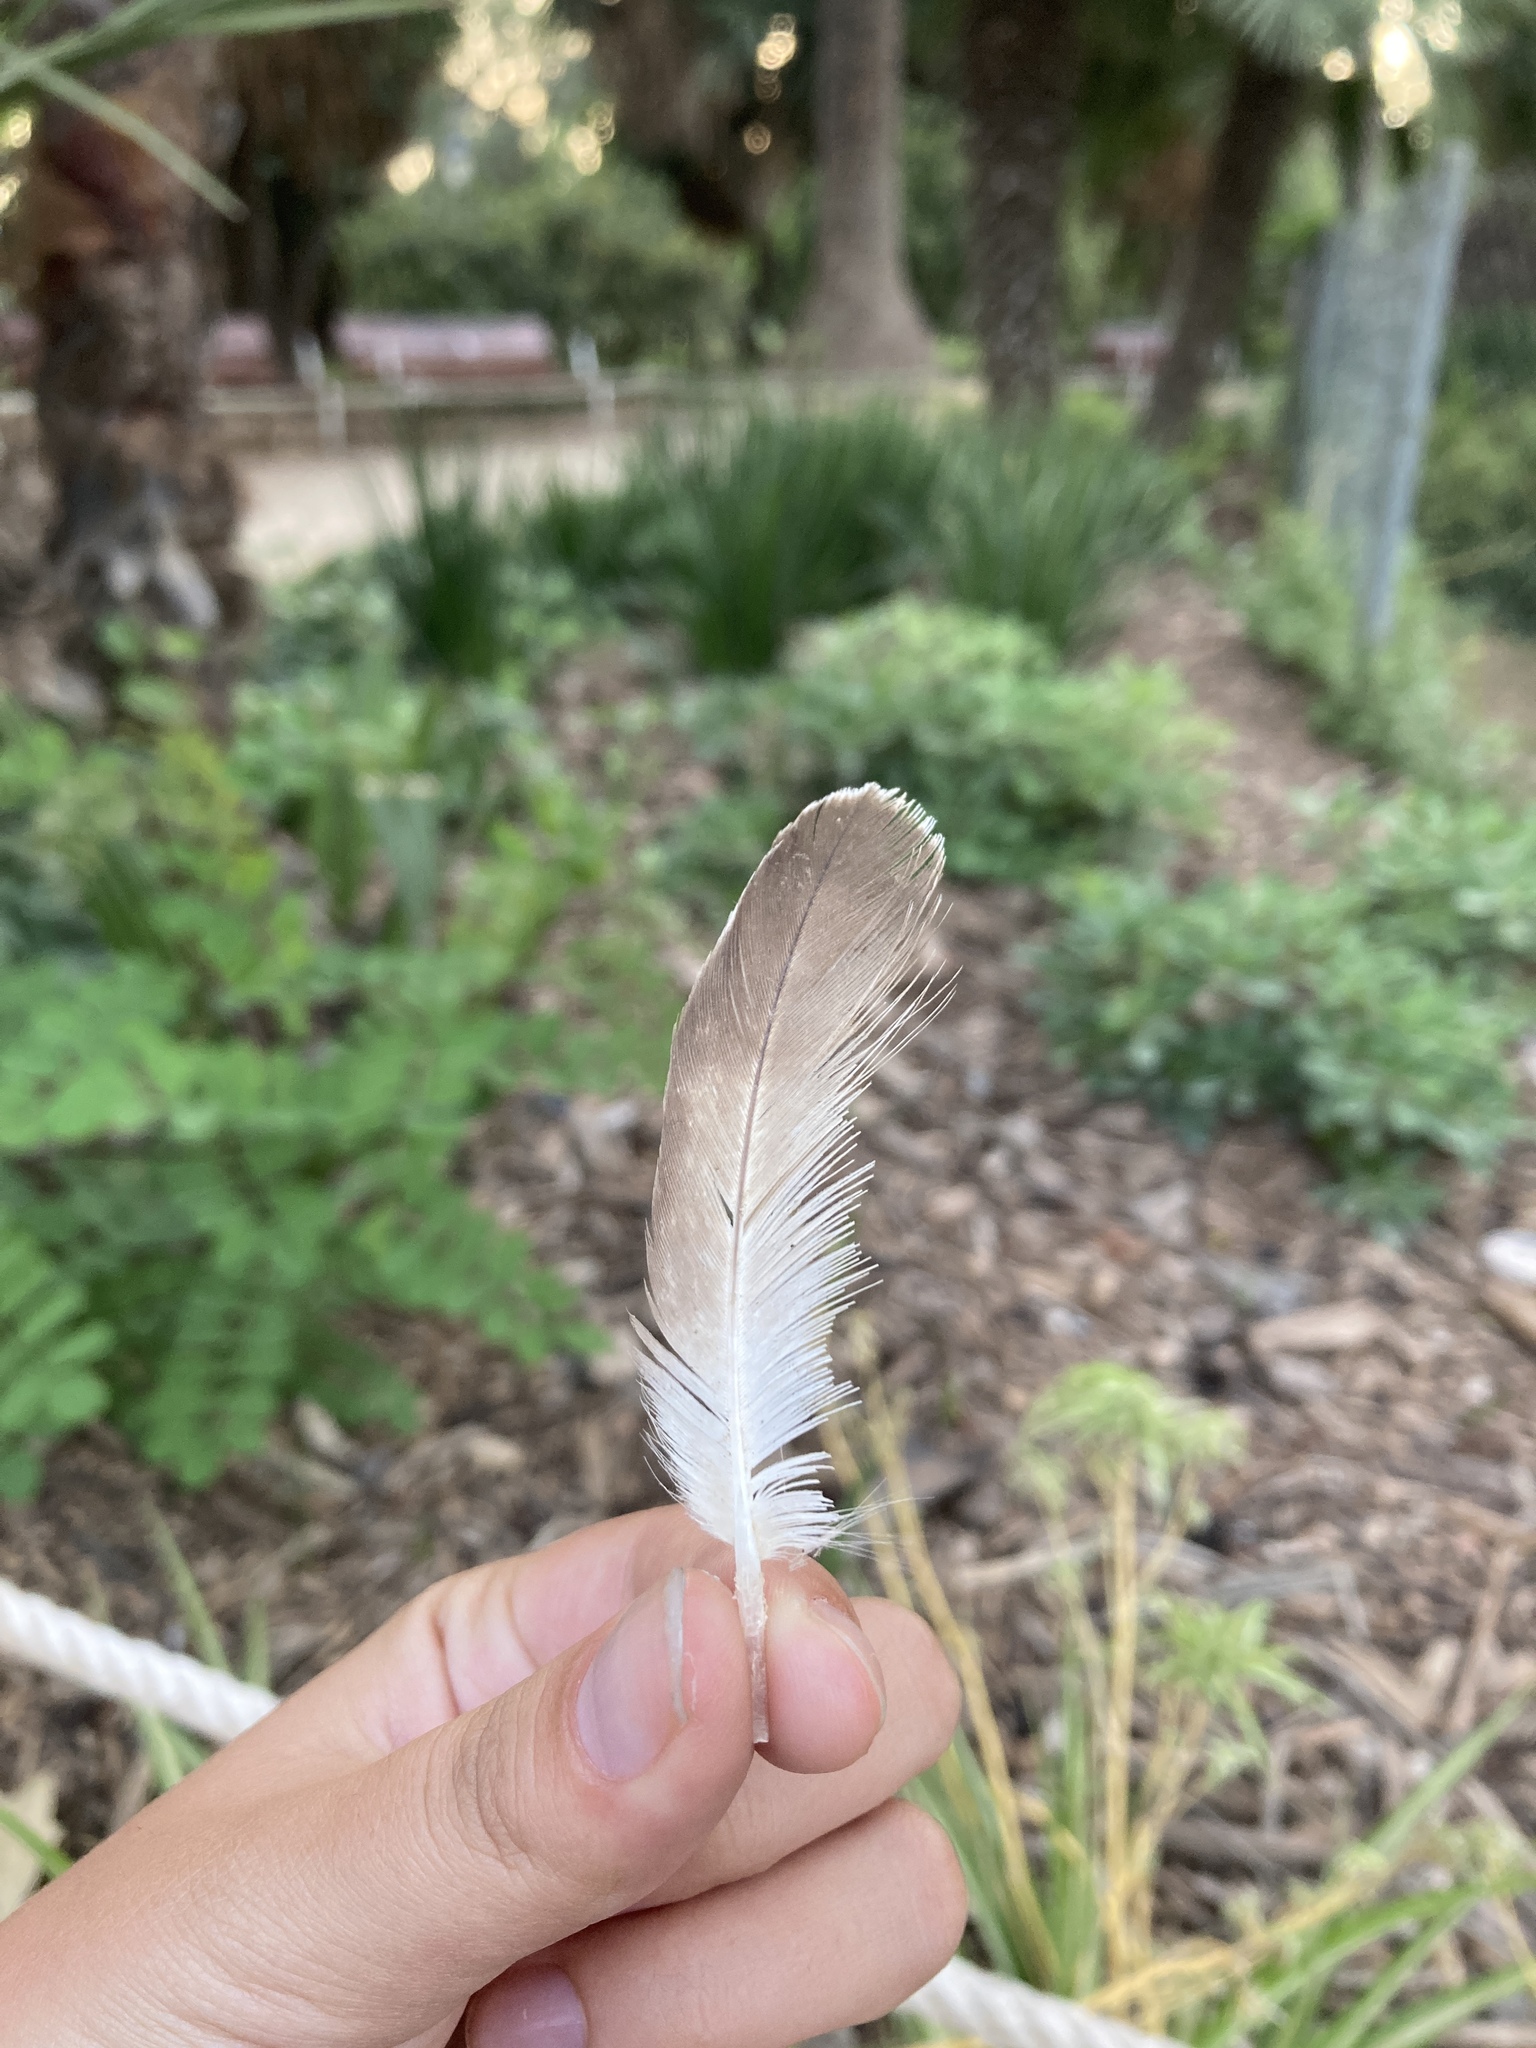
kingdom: Animalia
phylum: Chordata
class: Aves
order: Charadriiformes
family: Laridae
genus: Larus
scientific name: Larus michahellis
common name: Yellow-legged gull
